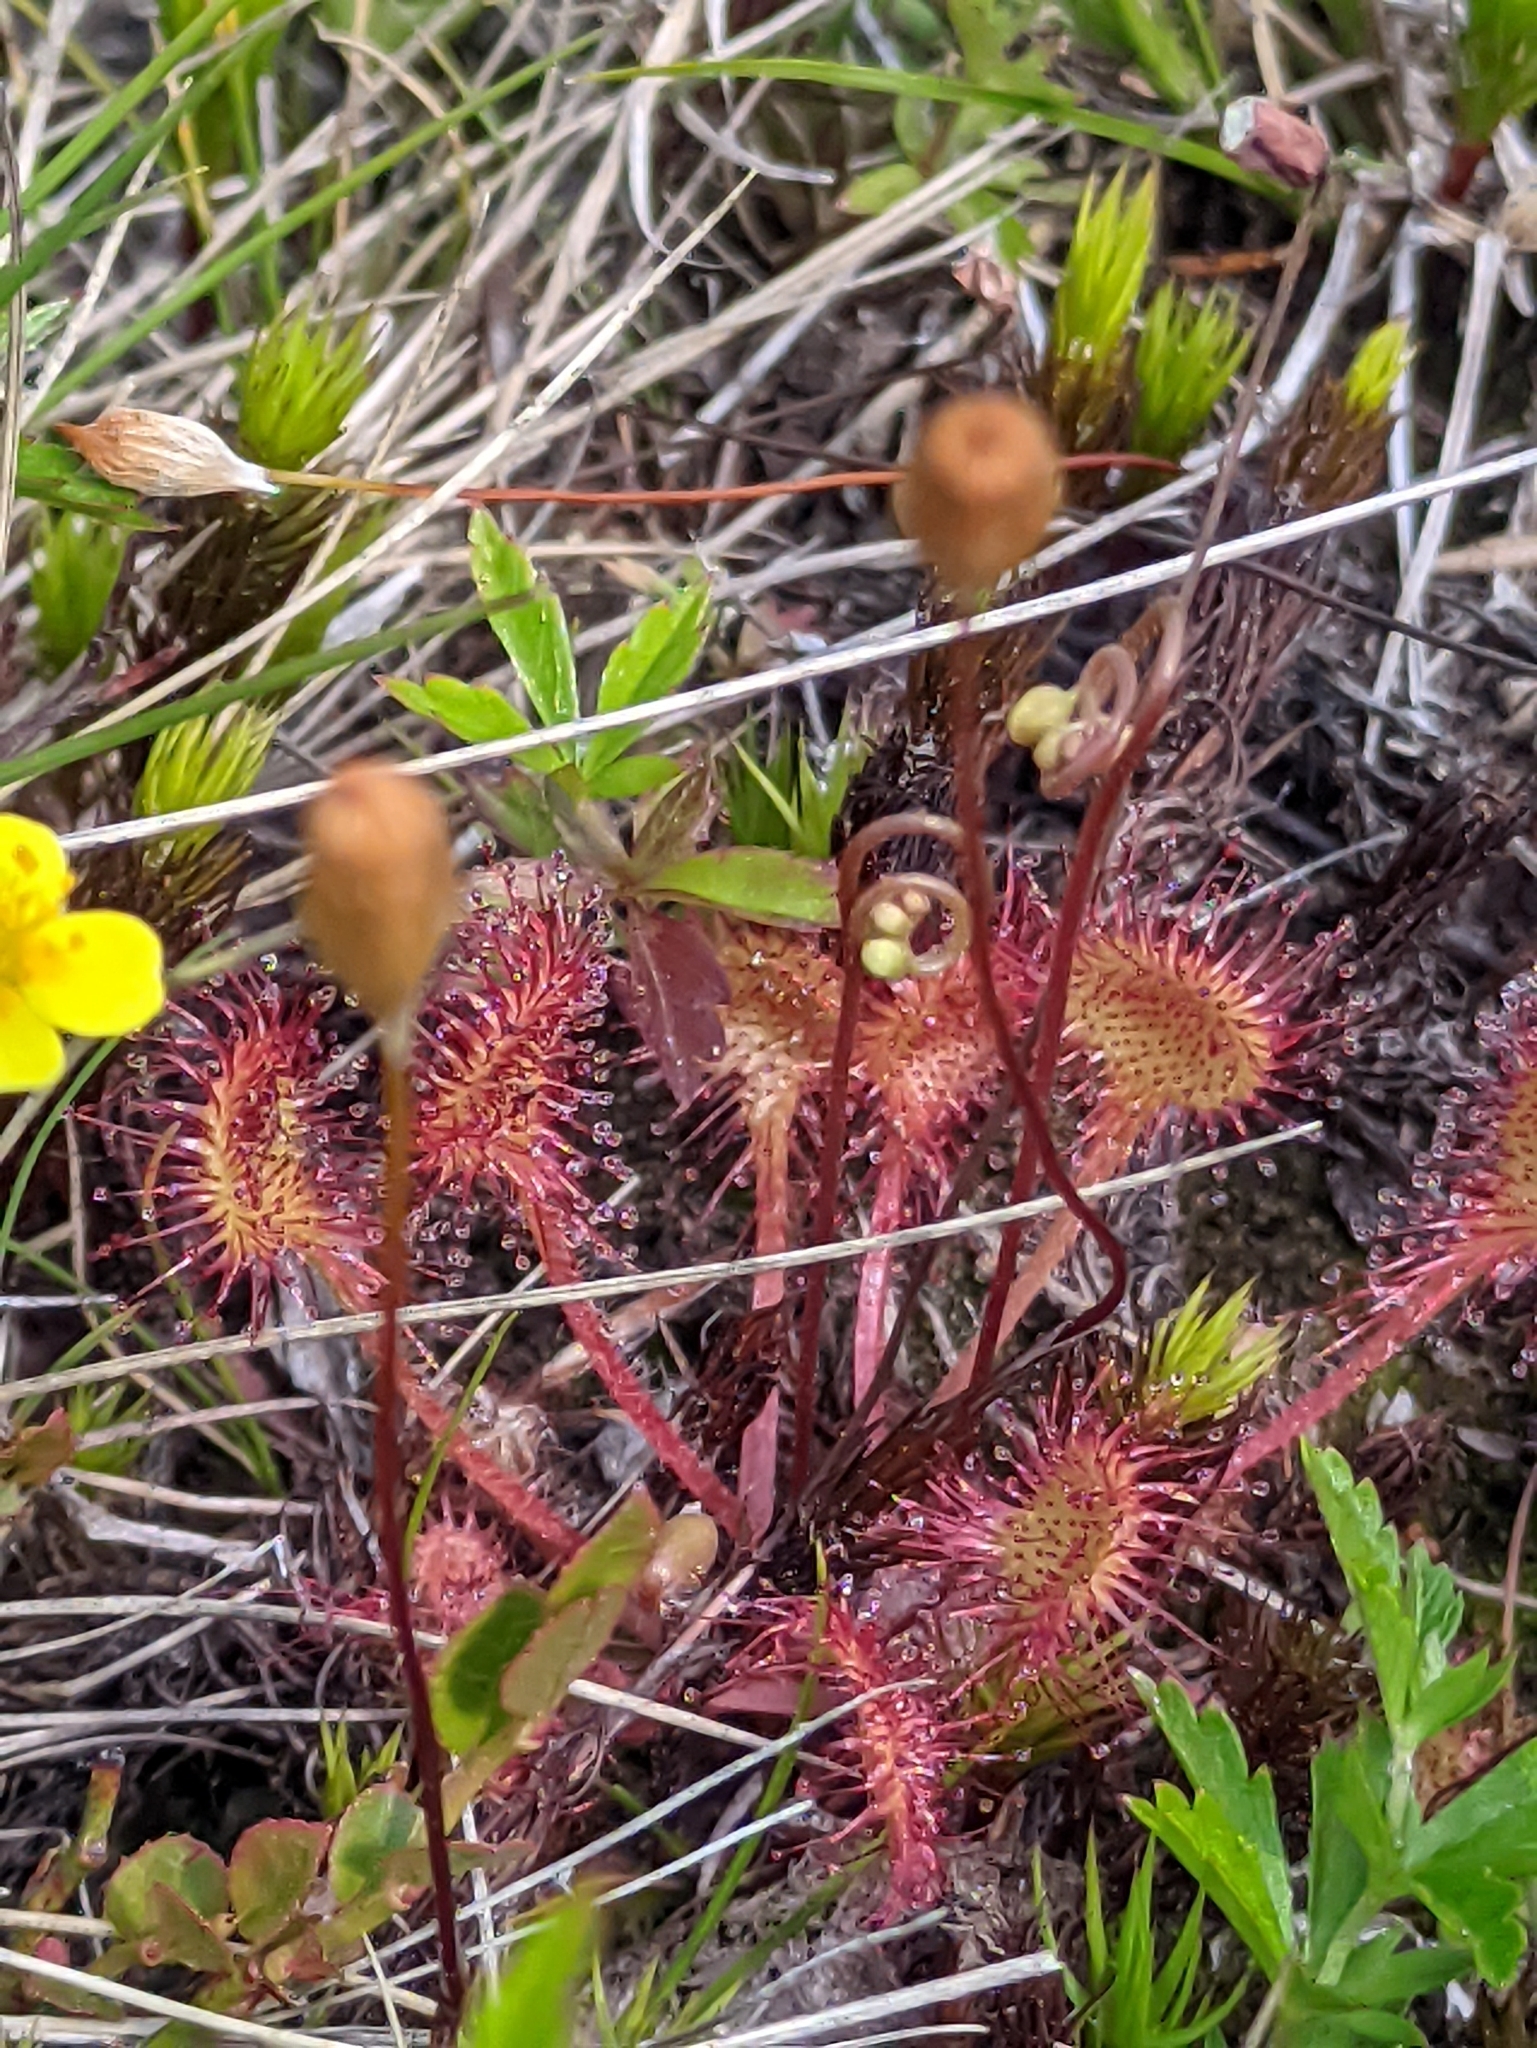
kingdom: Plantae
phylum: Tracheophyta
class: Magnoliopsida
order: Caryophyllales
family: Droseraceae
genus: Drosera
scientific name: Drosera rotundifolia
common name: Round-leaved sundew
